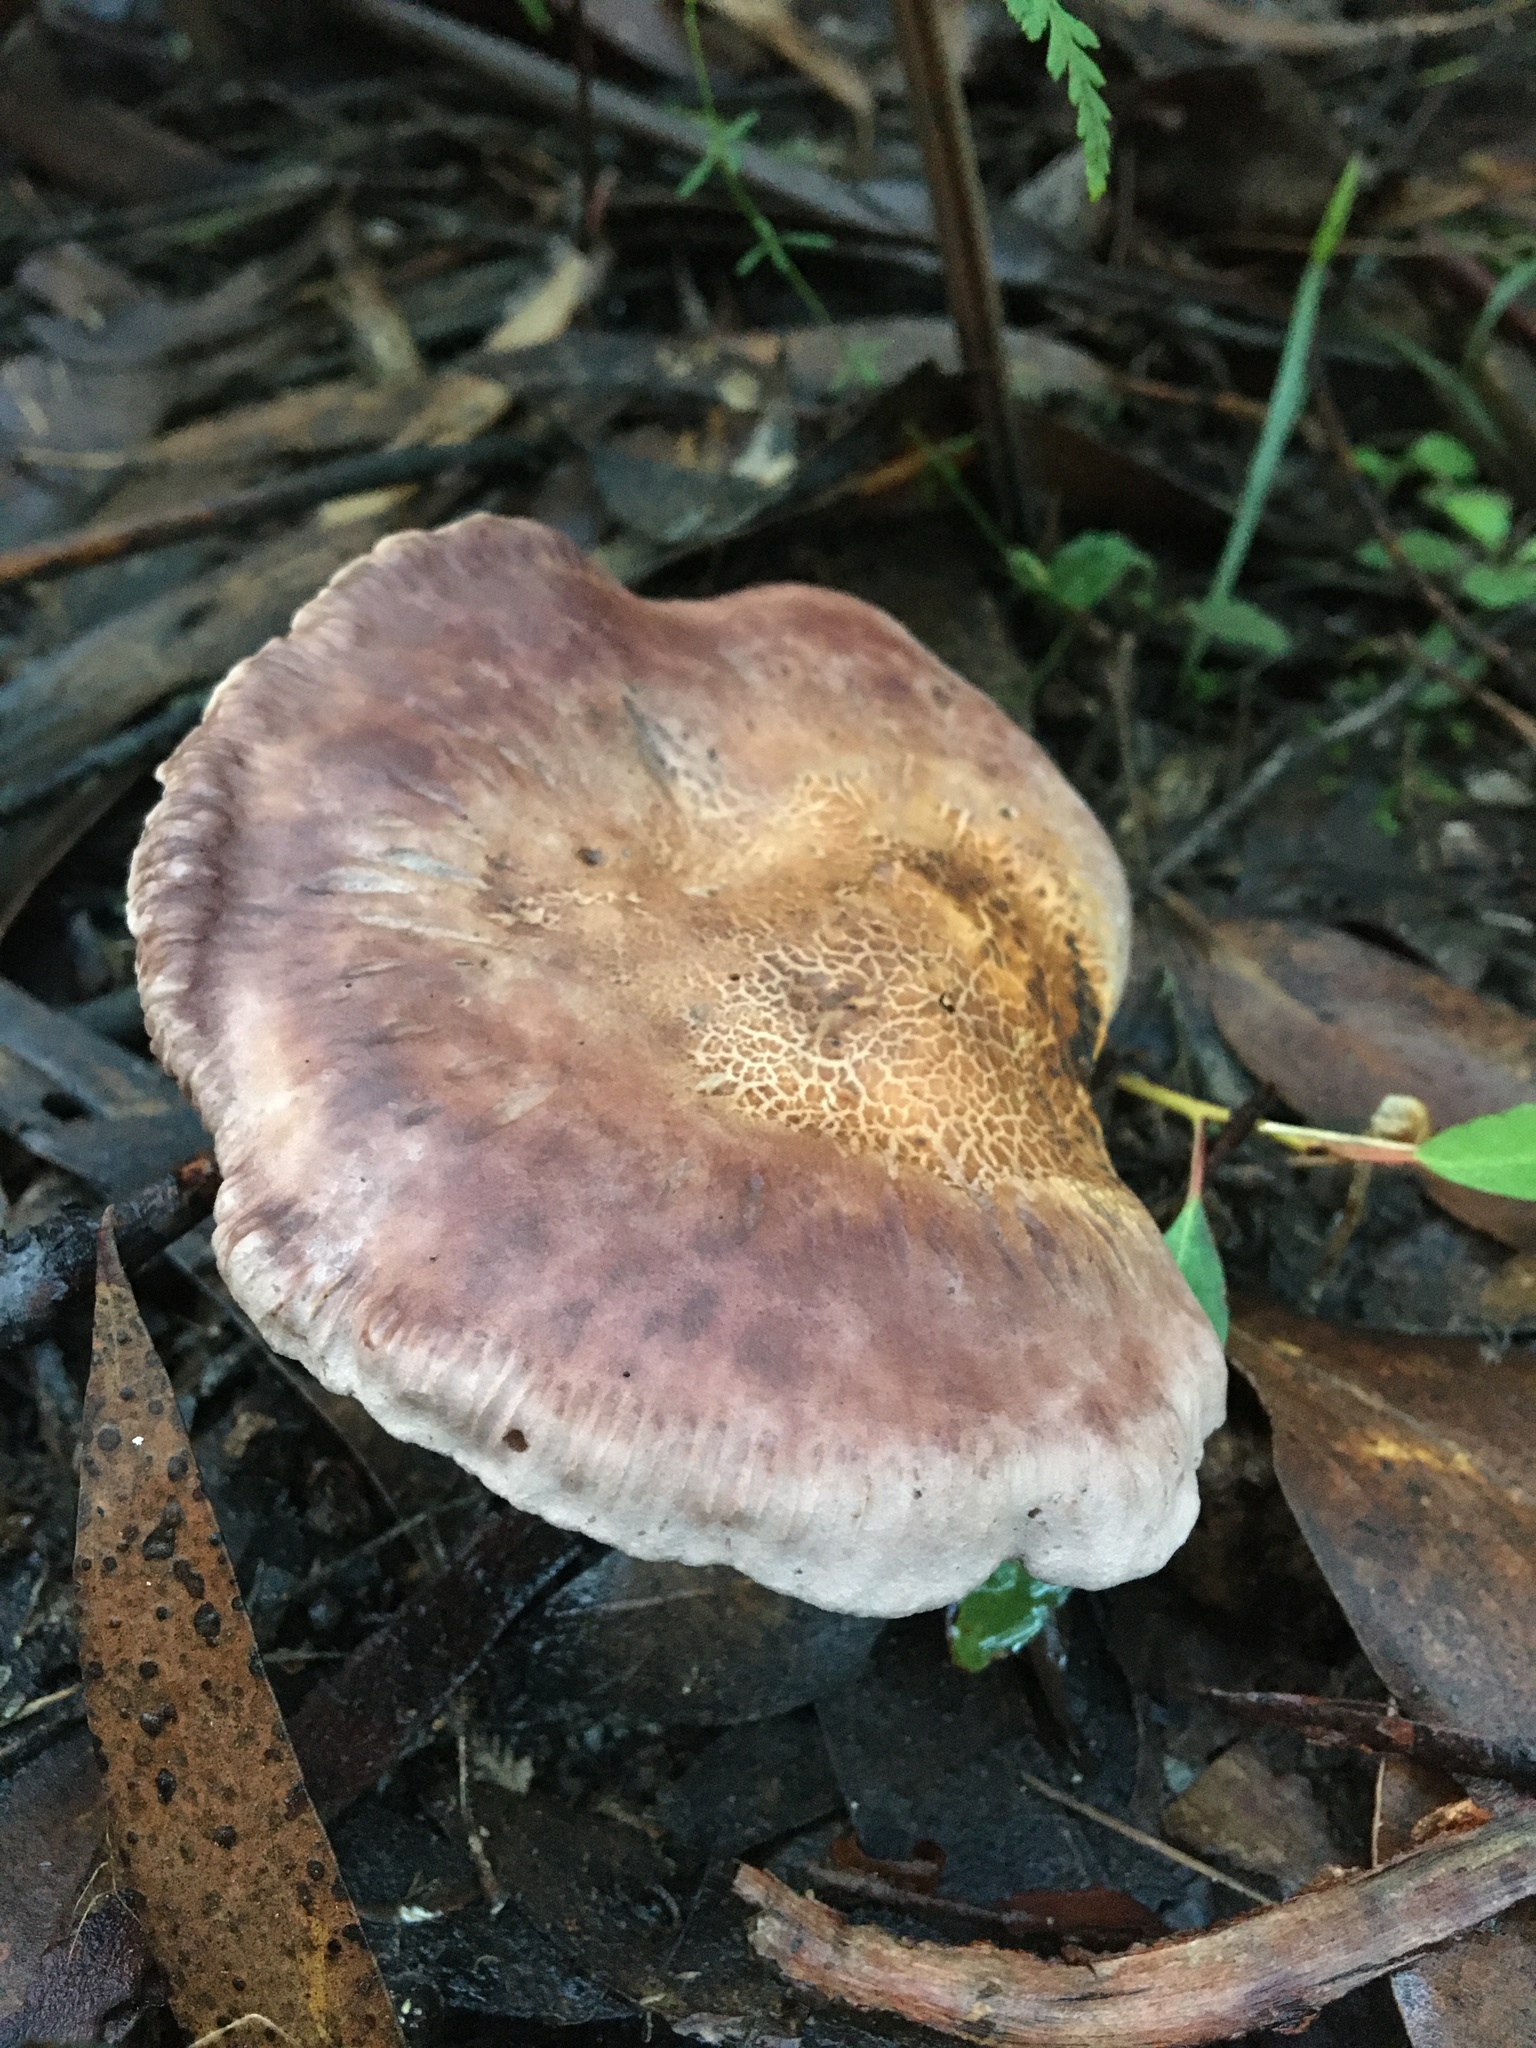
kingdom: Fungi
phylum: Basidiomycota
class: Agaricomycetes
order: Agaricales
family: Tricholomataceae
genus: Leucopaxillus
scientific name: Leucopaxillus lilacinus
